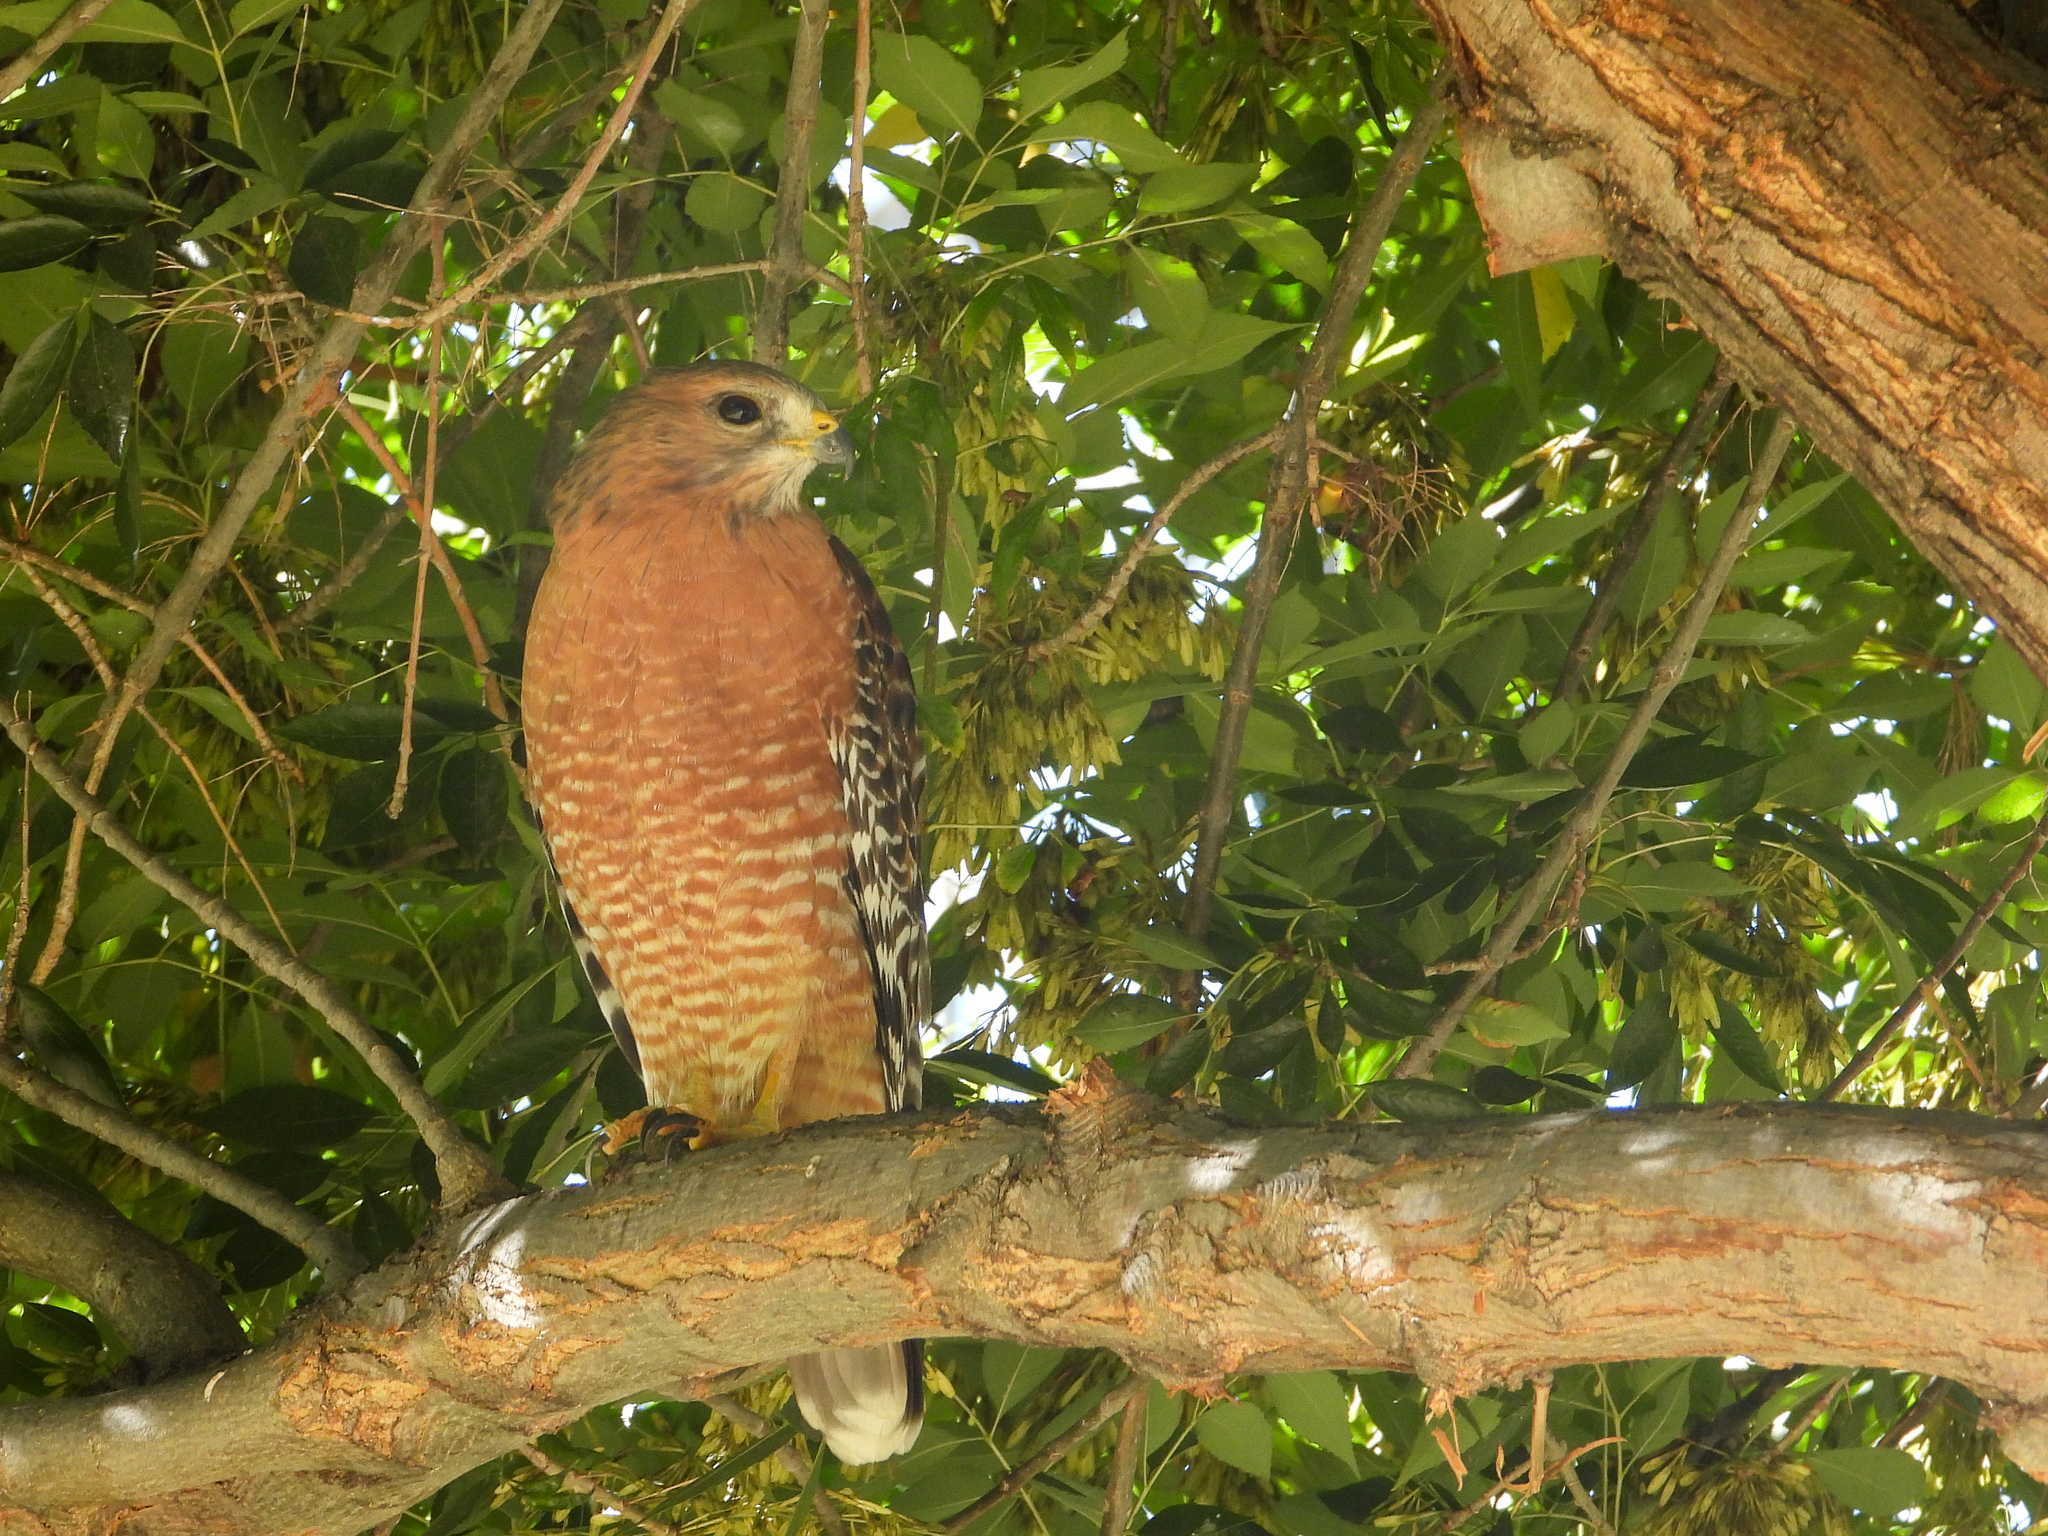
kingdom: Animalia
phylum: Chordata
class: Aves
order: Accipitriformes
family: Accipitridae
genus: Buteo
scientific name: Buteo lineatus
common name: Red-shouldered hawk
